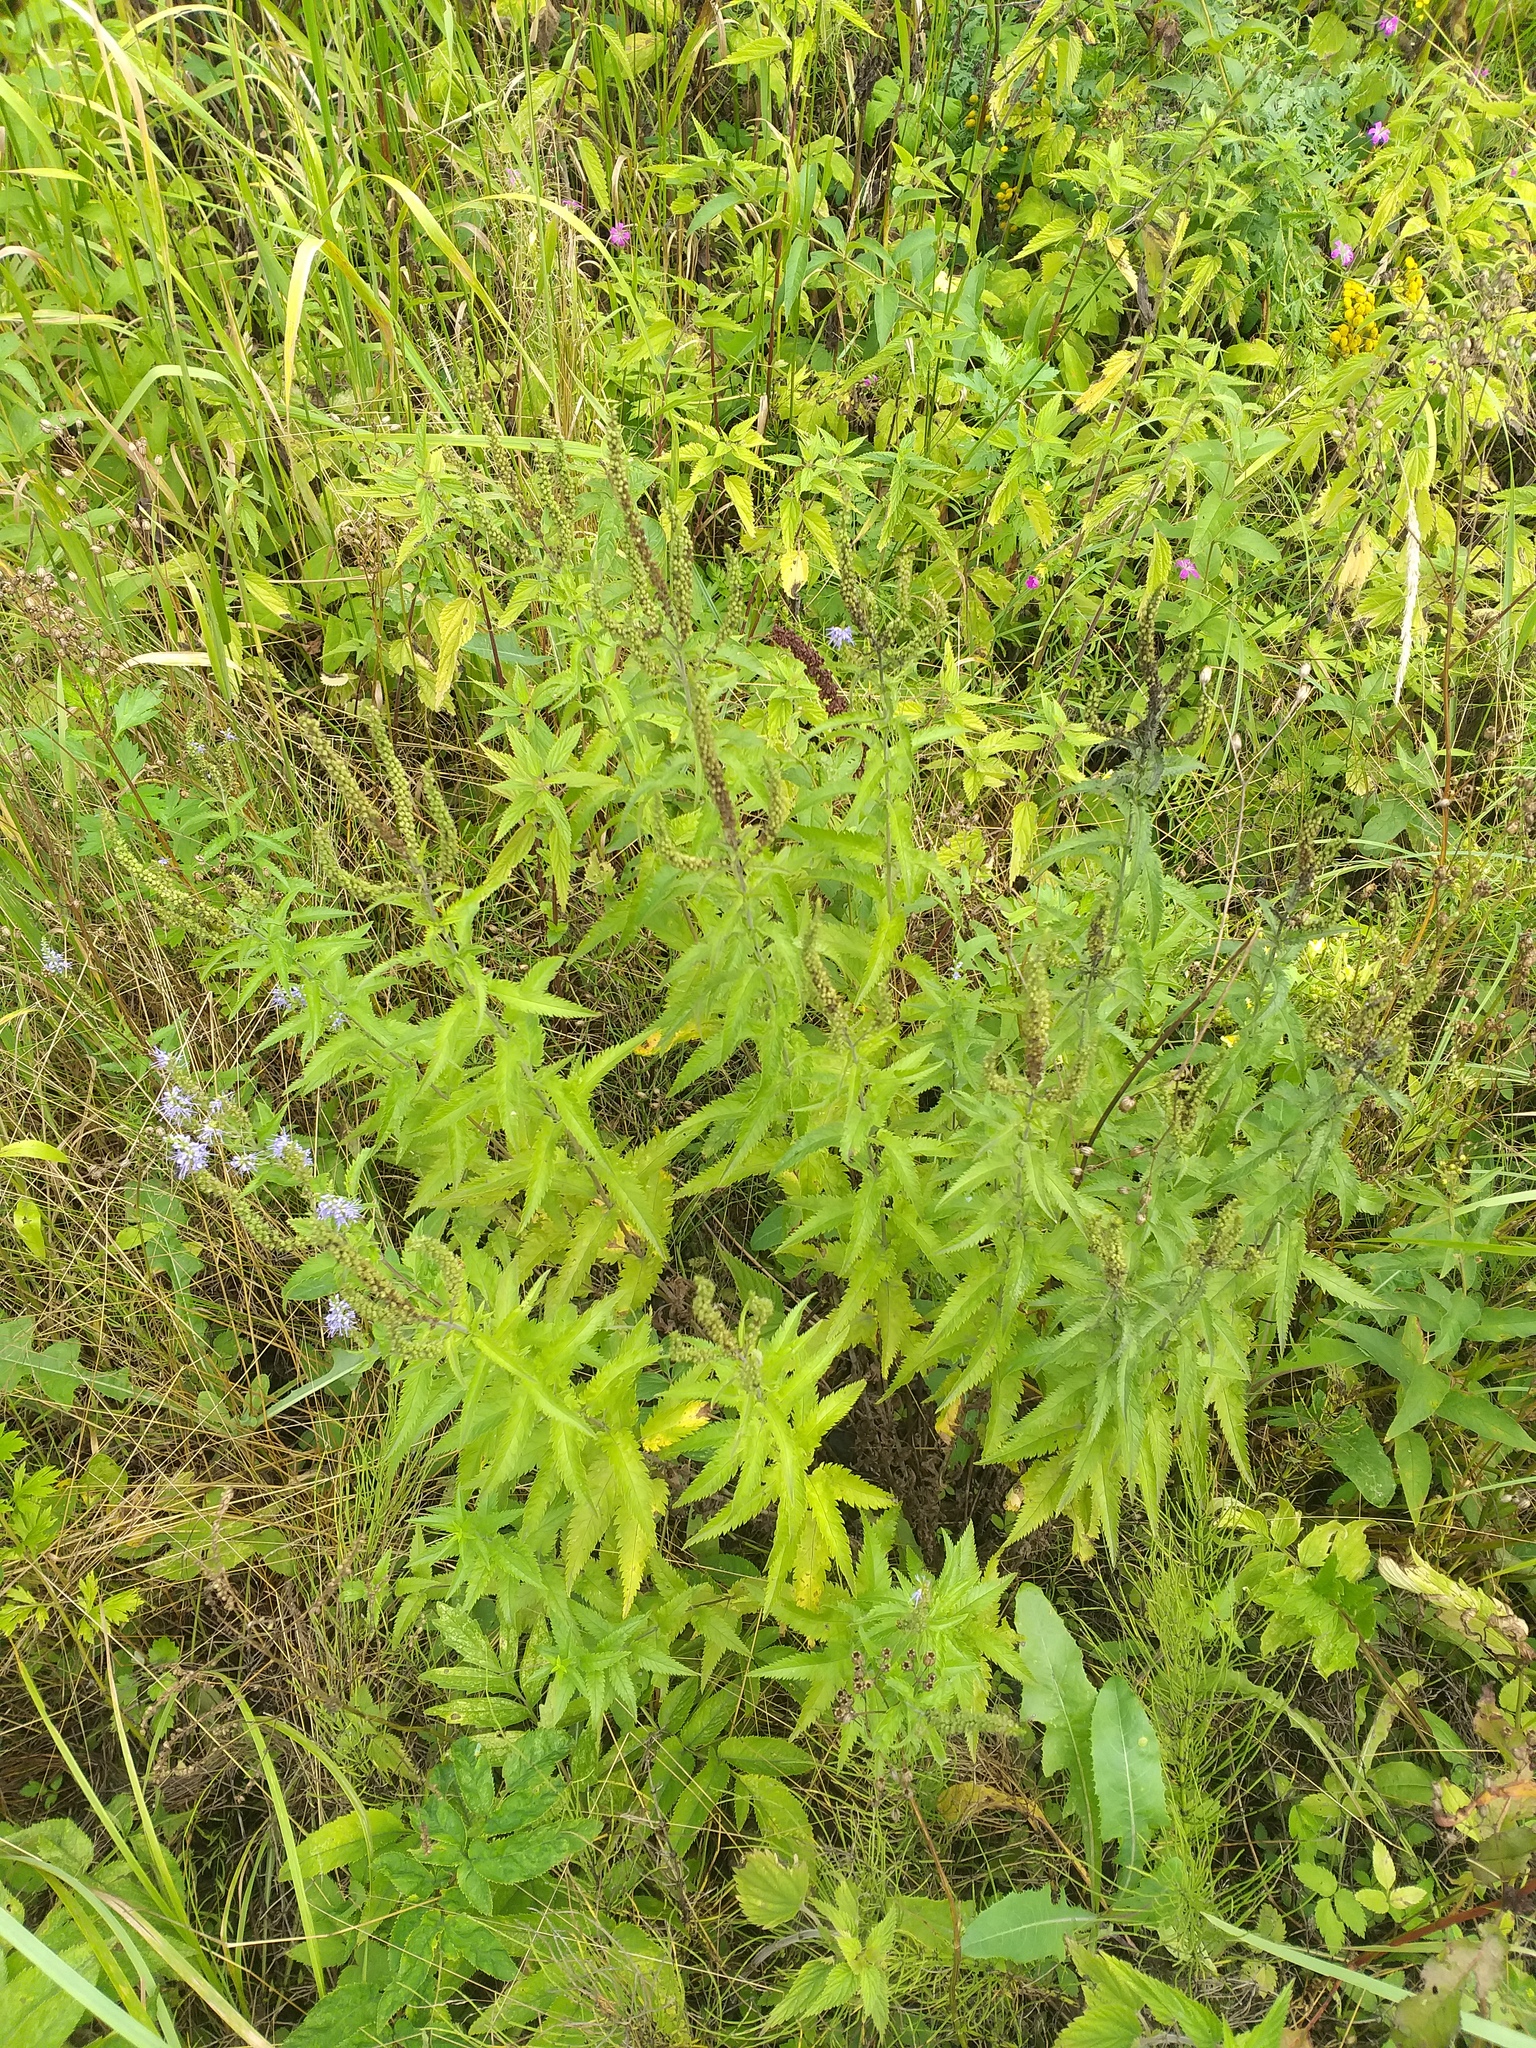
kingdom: Plantae
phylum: Tracheophyta
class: Magnoliopsida
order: Rosales
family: Urticaceae
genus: Urtica
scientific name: Urtica dioica
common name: Common nettle
